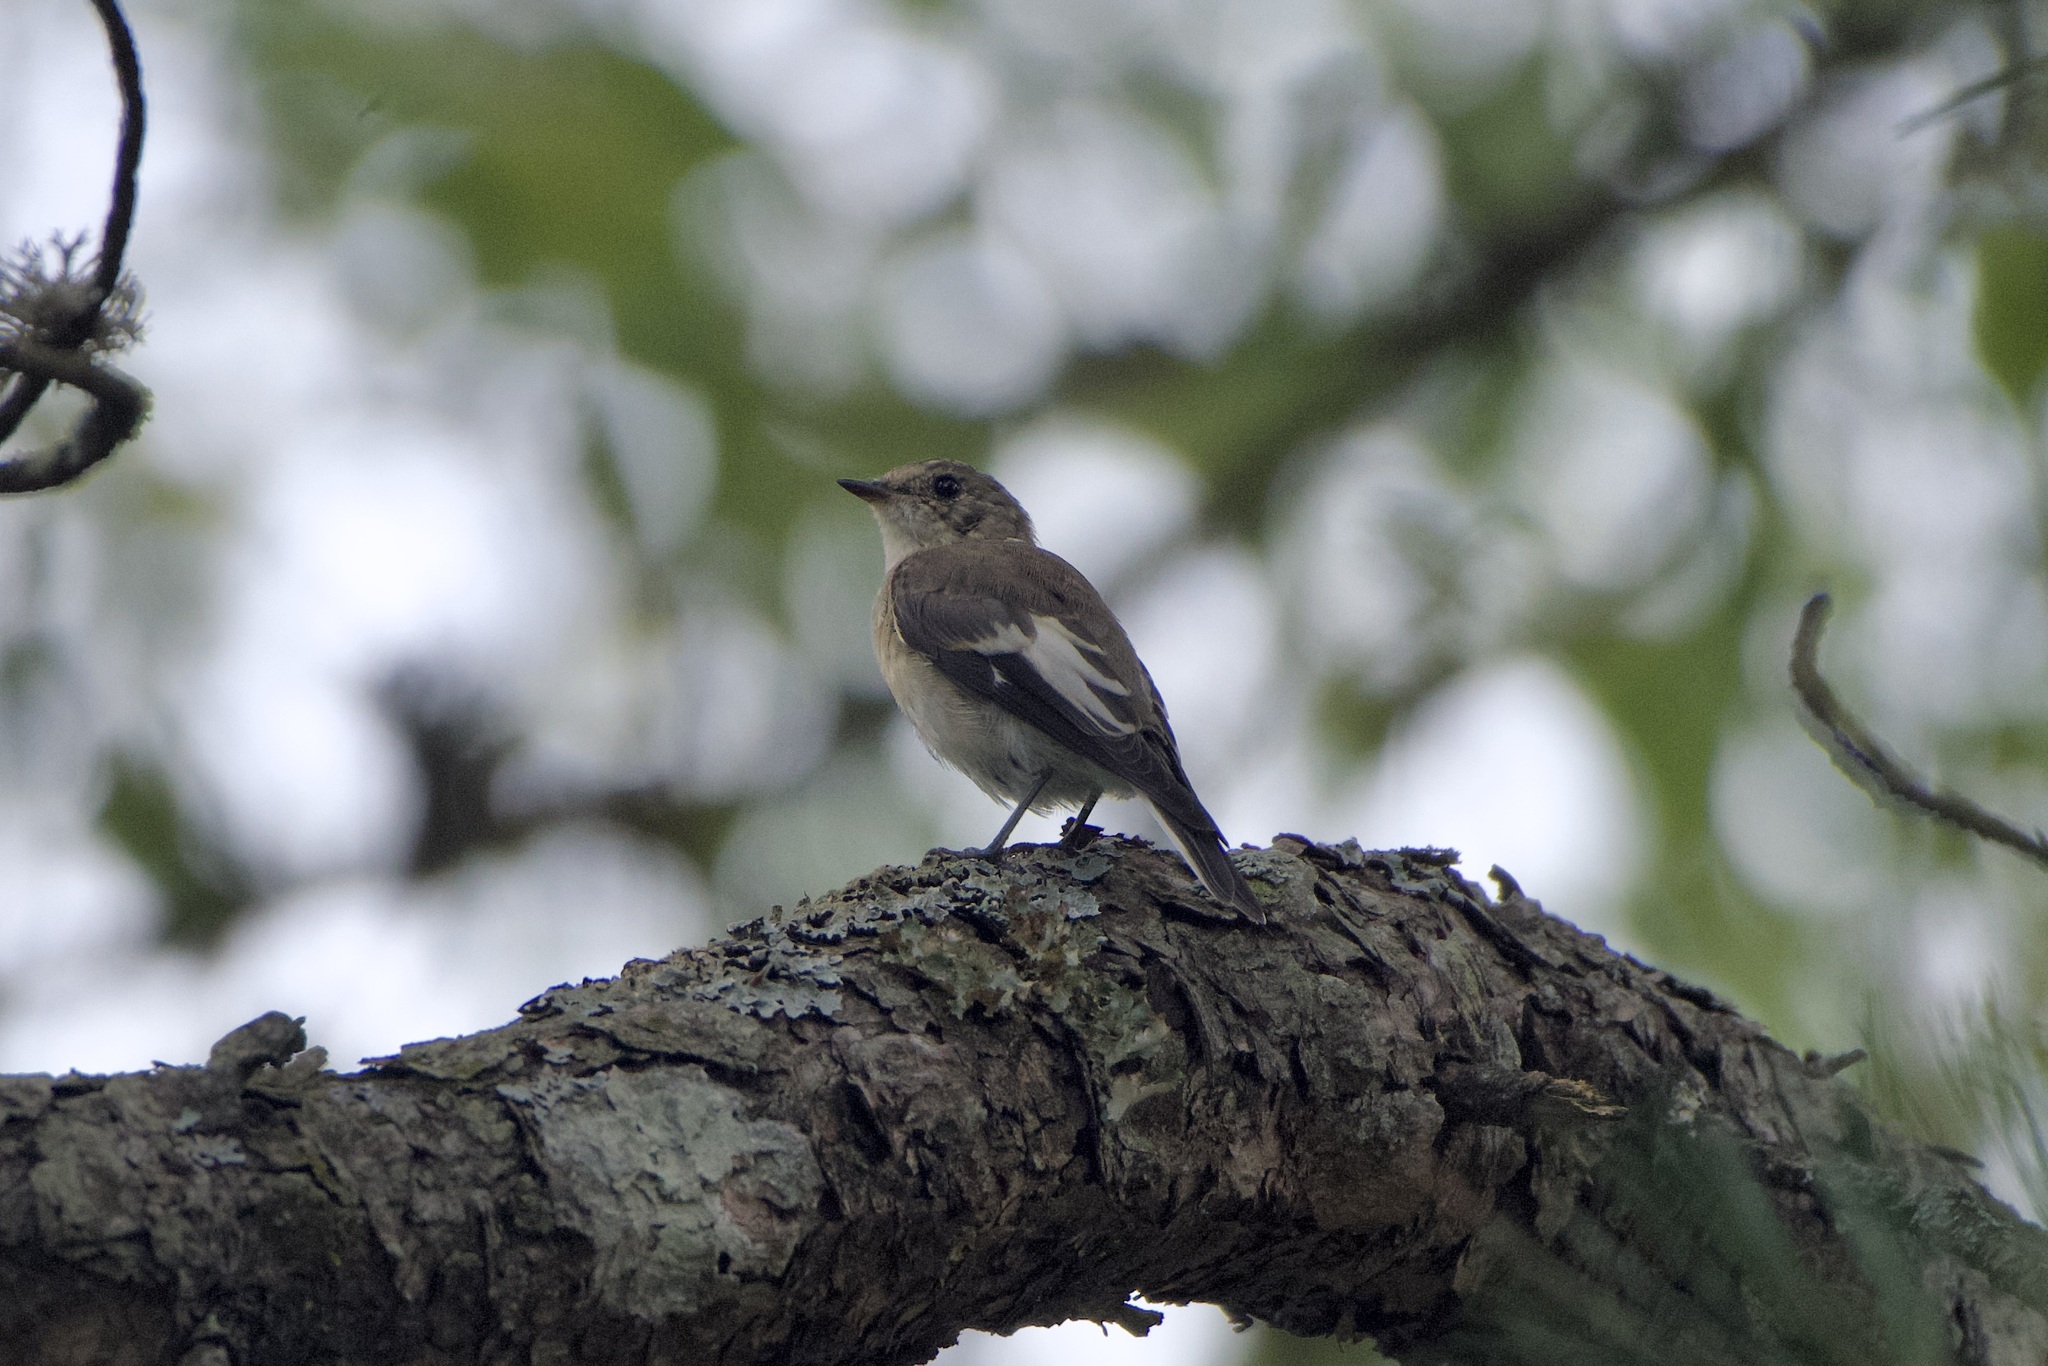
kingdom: Animalia
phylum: Chordata
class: Aves
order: Passeriformes
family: Muscicapidae
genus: Ficedula
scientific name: Ficedula albicollis
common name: Collared flycatcher
